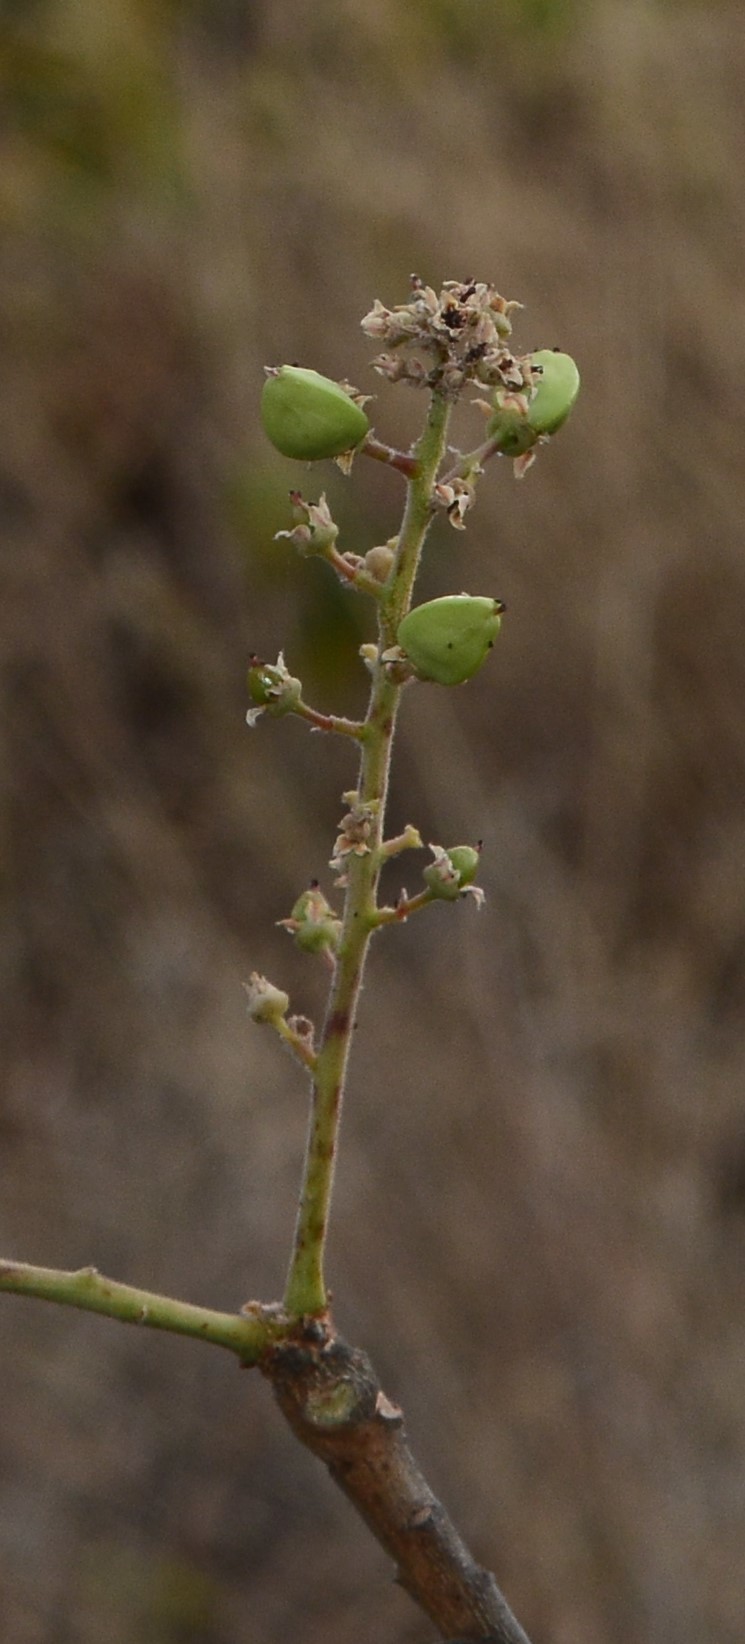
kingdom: Plantae
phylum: Tracheophyta
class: Magnoliopsida
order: Sapindales
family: Burseraceae
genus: Boswellia
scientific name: Boswellia serrata
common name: Boswellia
